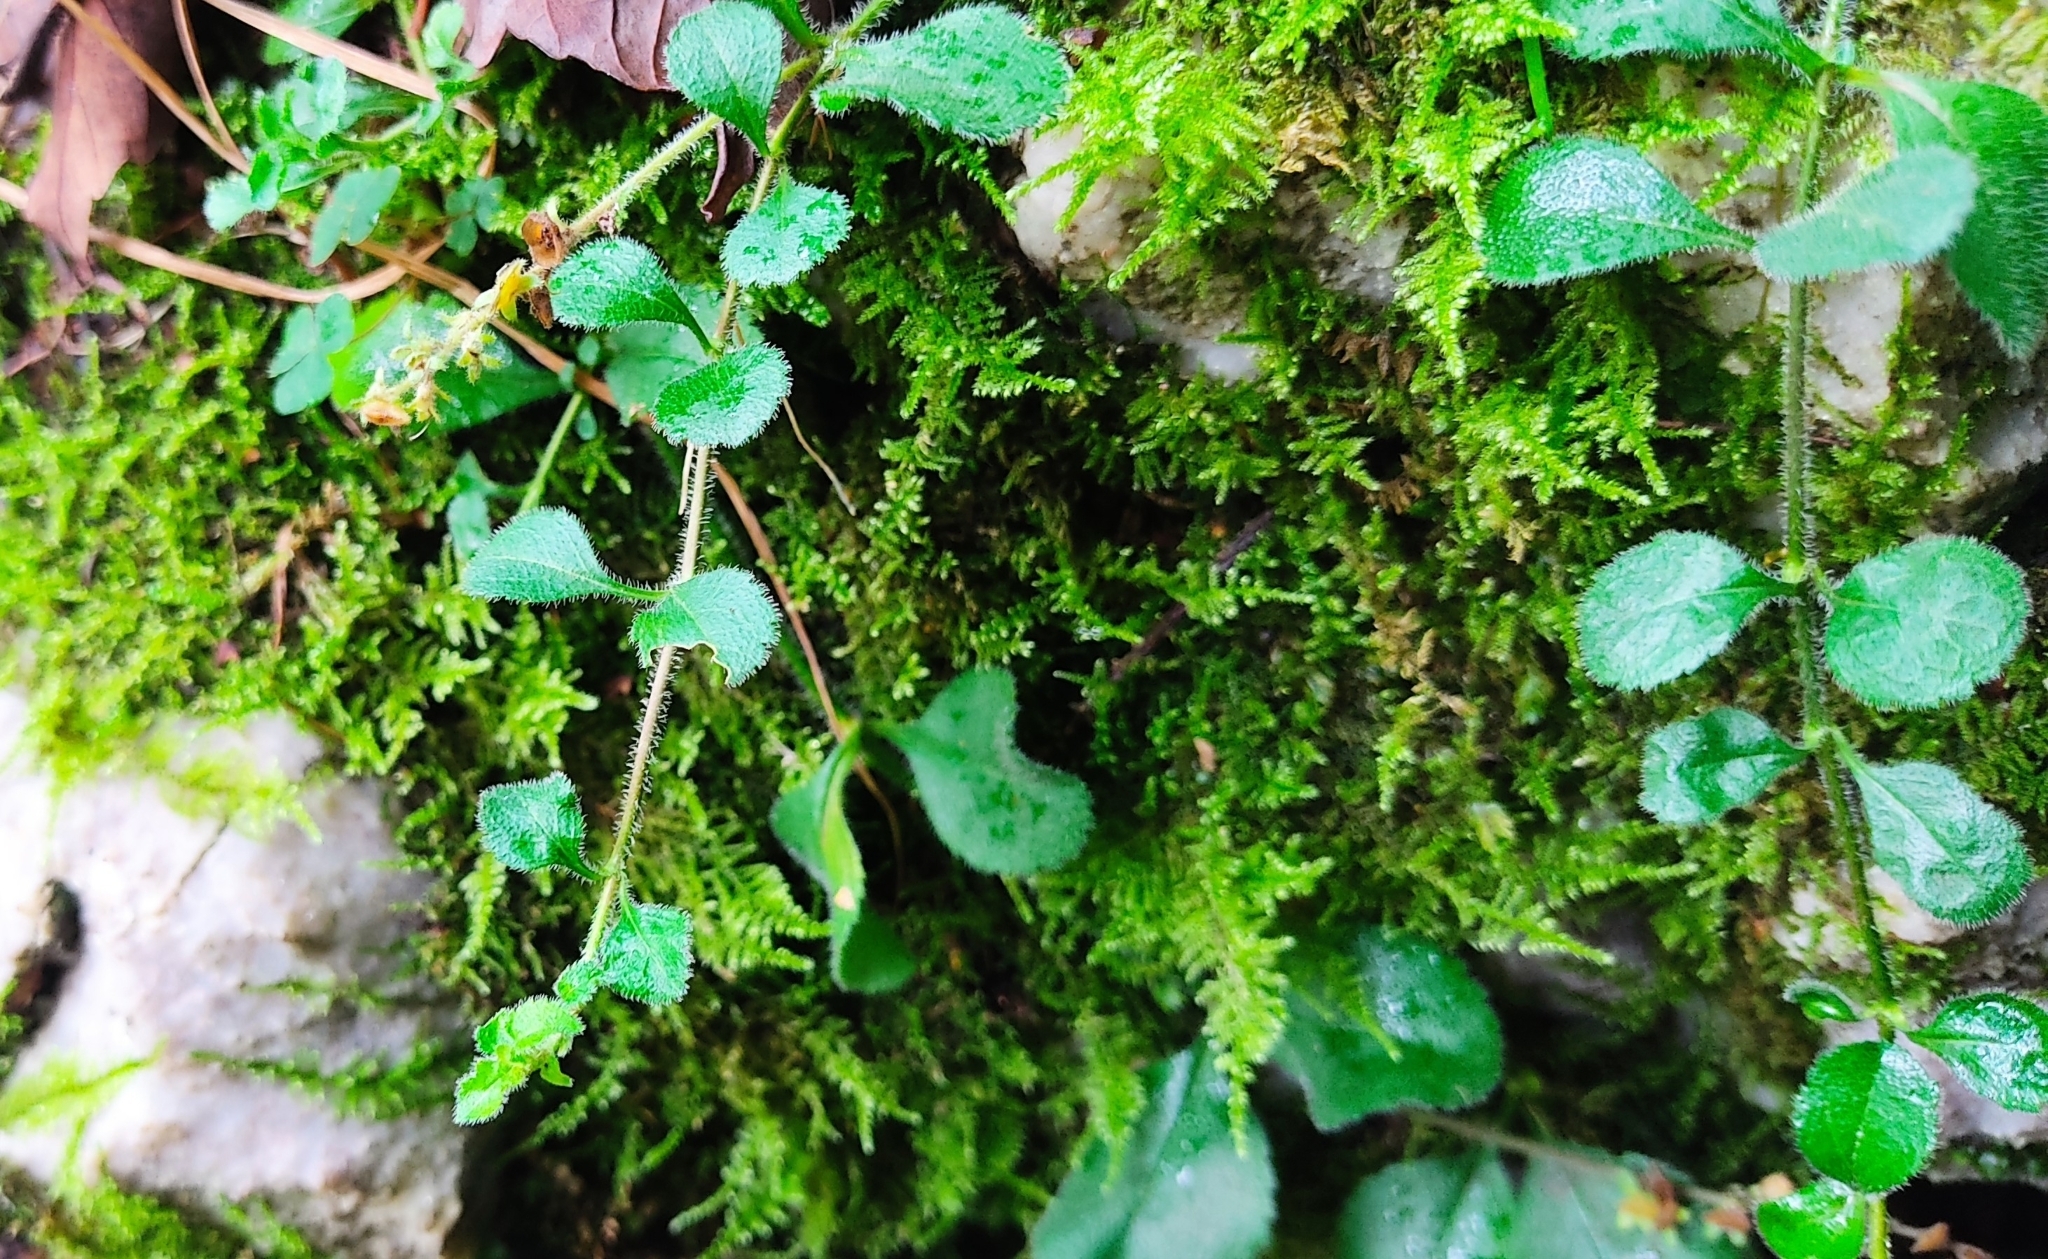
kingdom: Plantae
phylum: Tracheophyta
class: Magnoliopsida
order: Lamiales
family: Plantaginaceae
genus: Veronica
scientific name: Veronica officinalis
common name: Common speedwell
